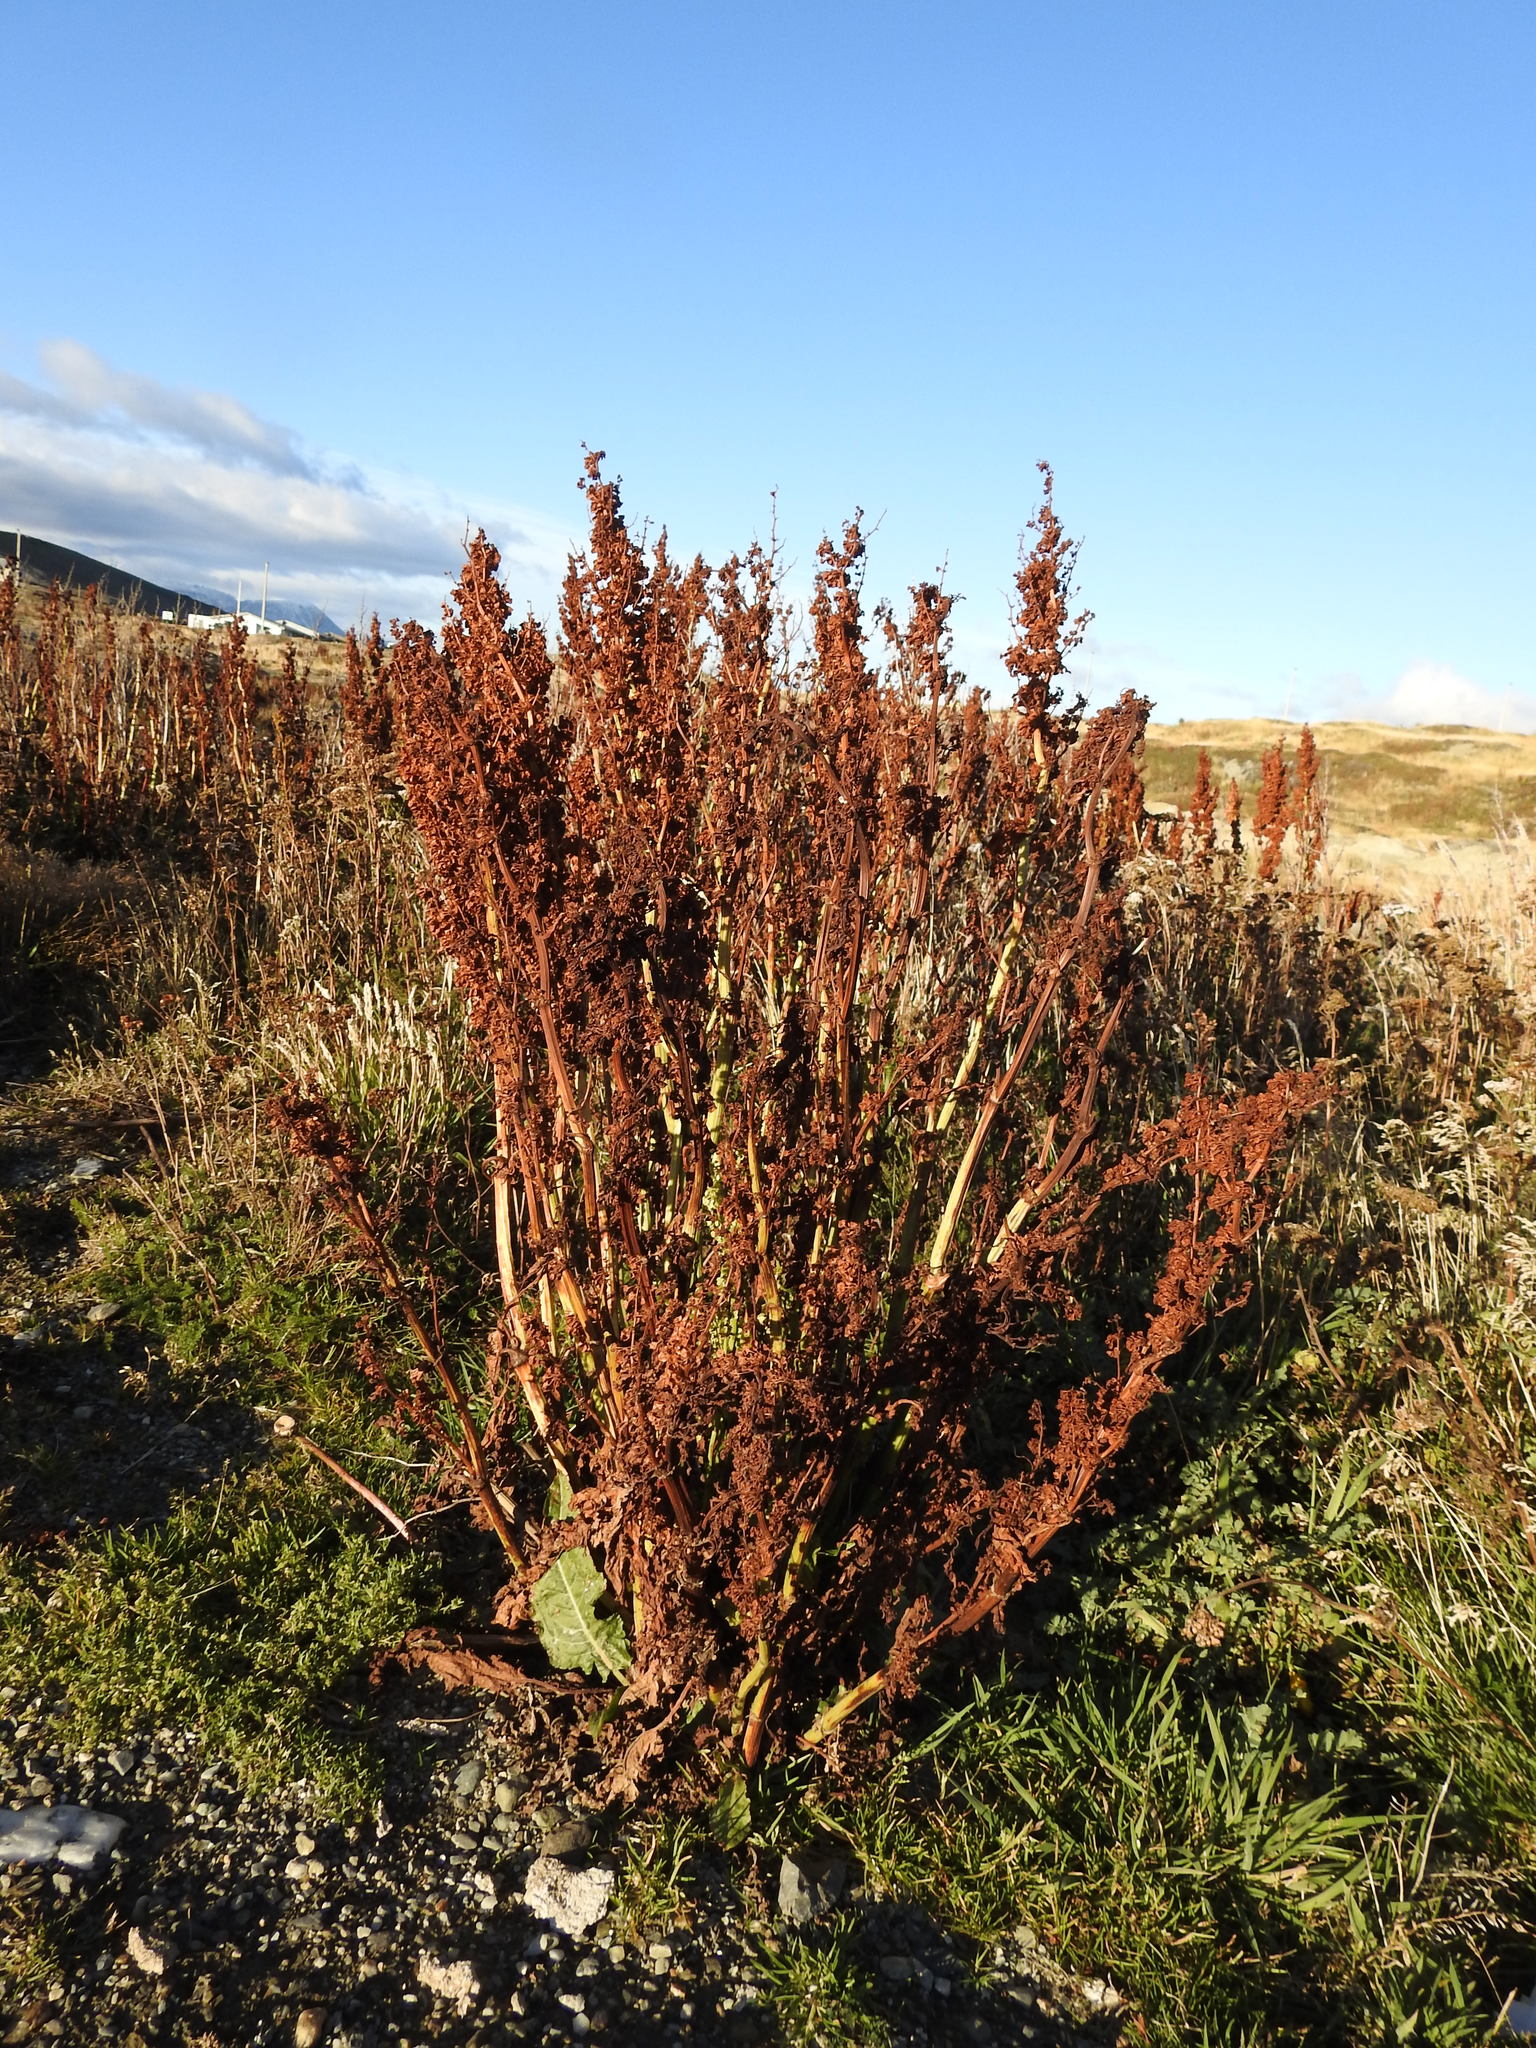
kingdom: Plantae
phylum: Tracheophyta
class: Magnoliopsida
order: Caryophyllales
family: Polygonaceae
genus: Rumex
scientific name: Rumex crispus
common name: Curled dock
